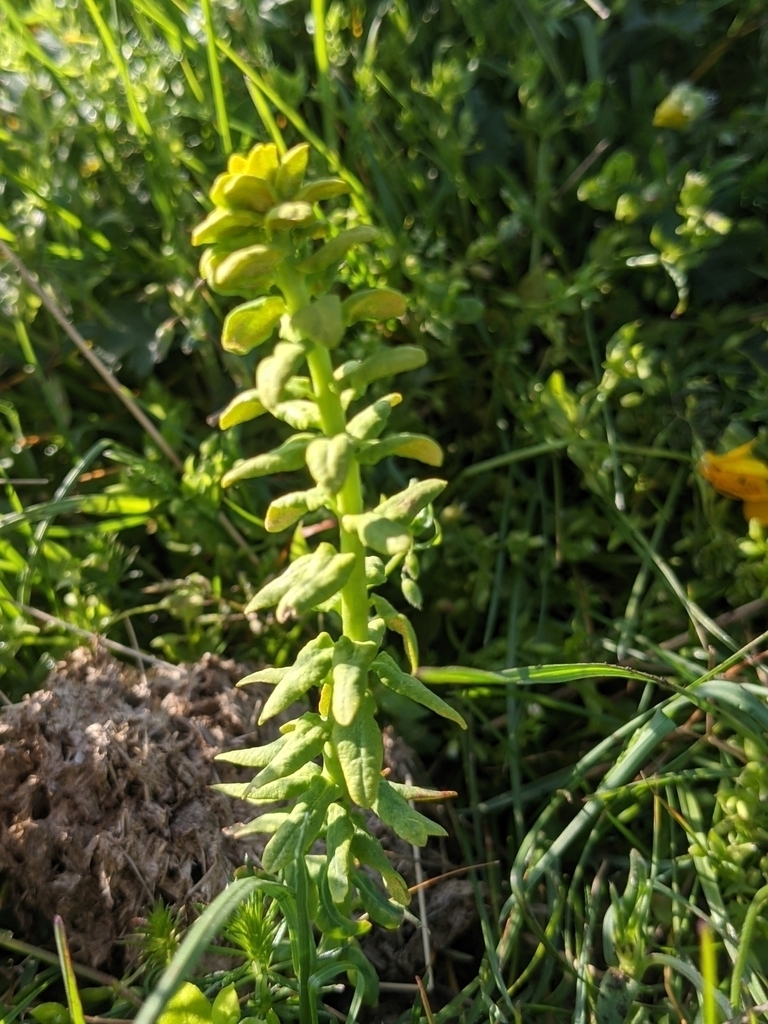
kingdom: Fungi
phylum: Basidiomycota
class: Pucciniomycetes
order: Pucciniales
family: Pucciniaceae
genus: Uromyces
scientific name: Uromyces
